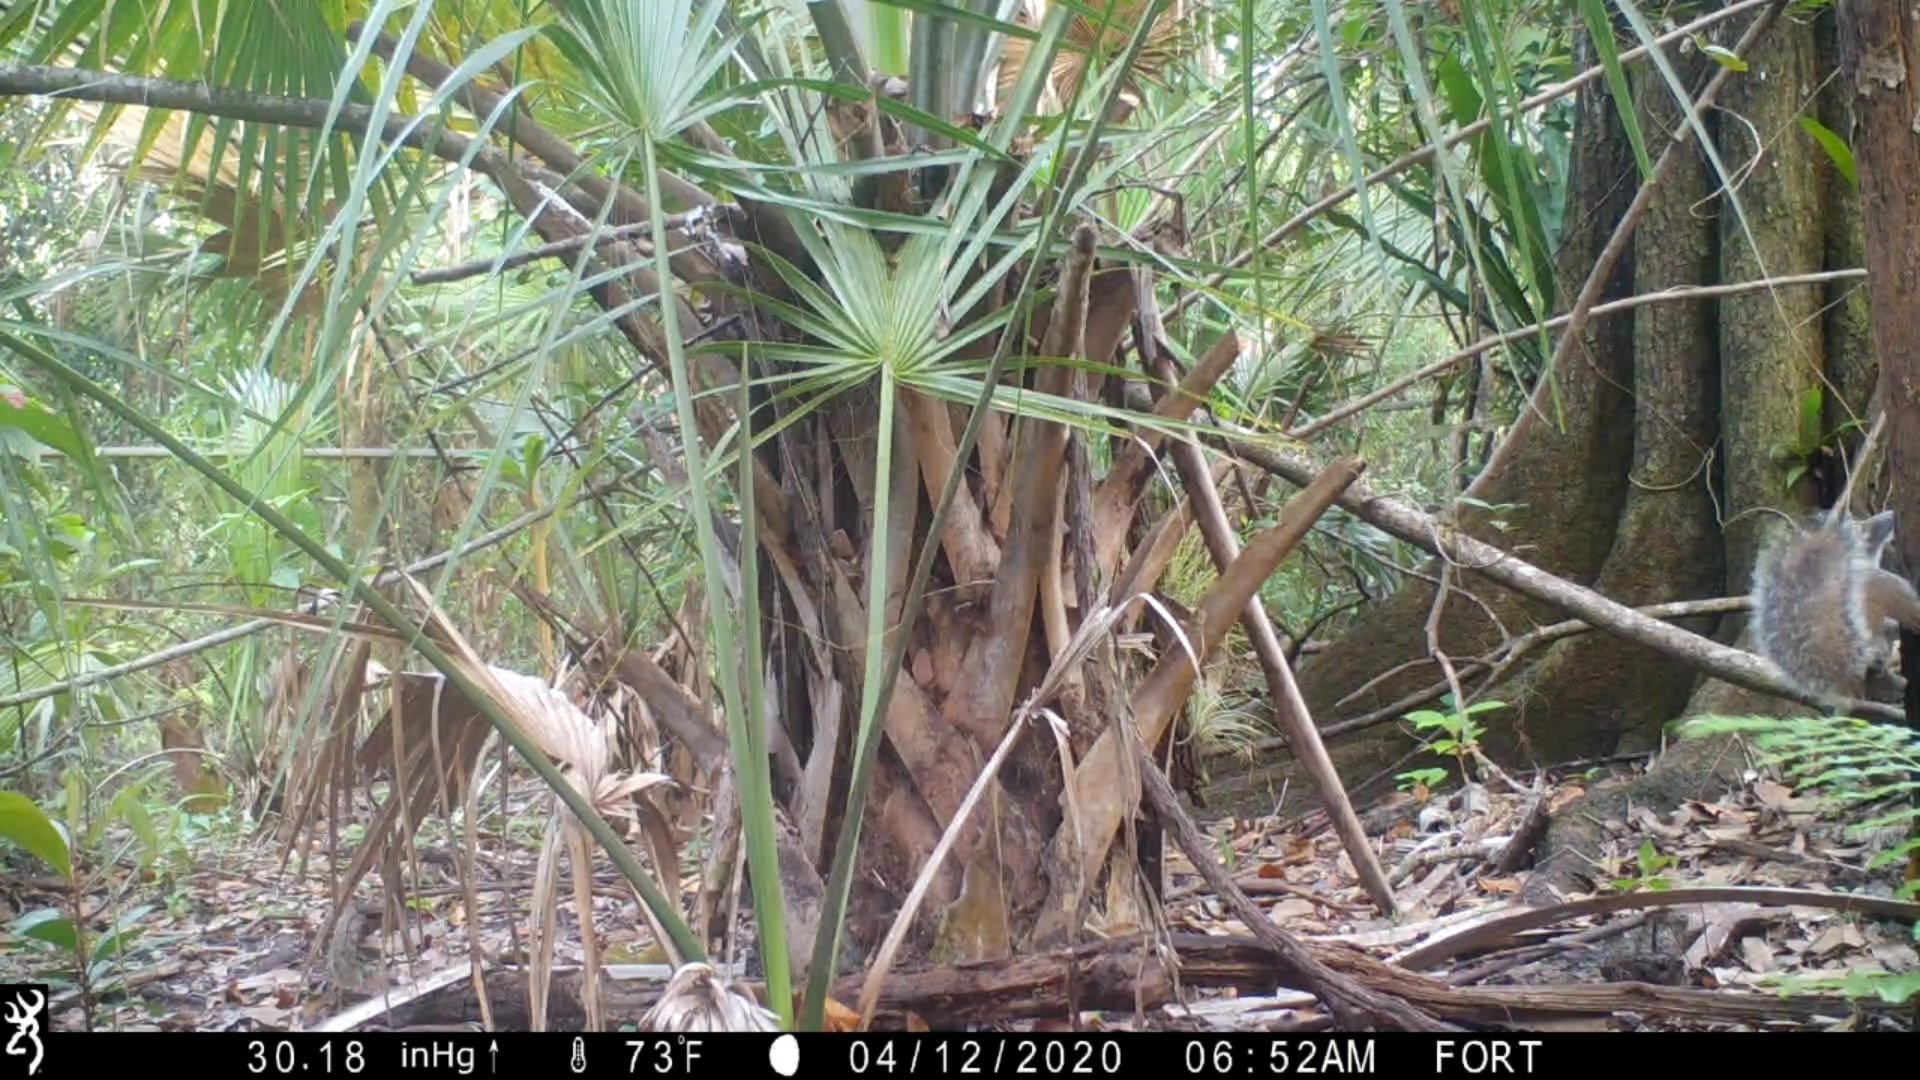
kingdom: Animalia
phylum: Chordata
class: Mammalia
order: Rodentia
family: Sciuridae
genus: Sciurus
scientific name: Sciurus carolinensis
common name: Eastern gray squirrel
